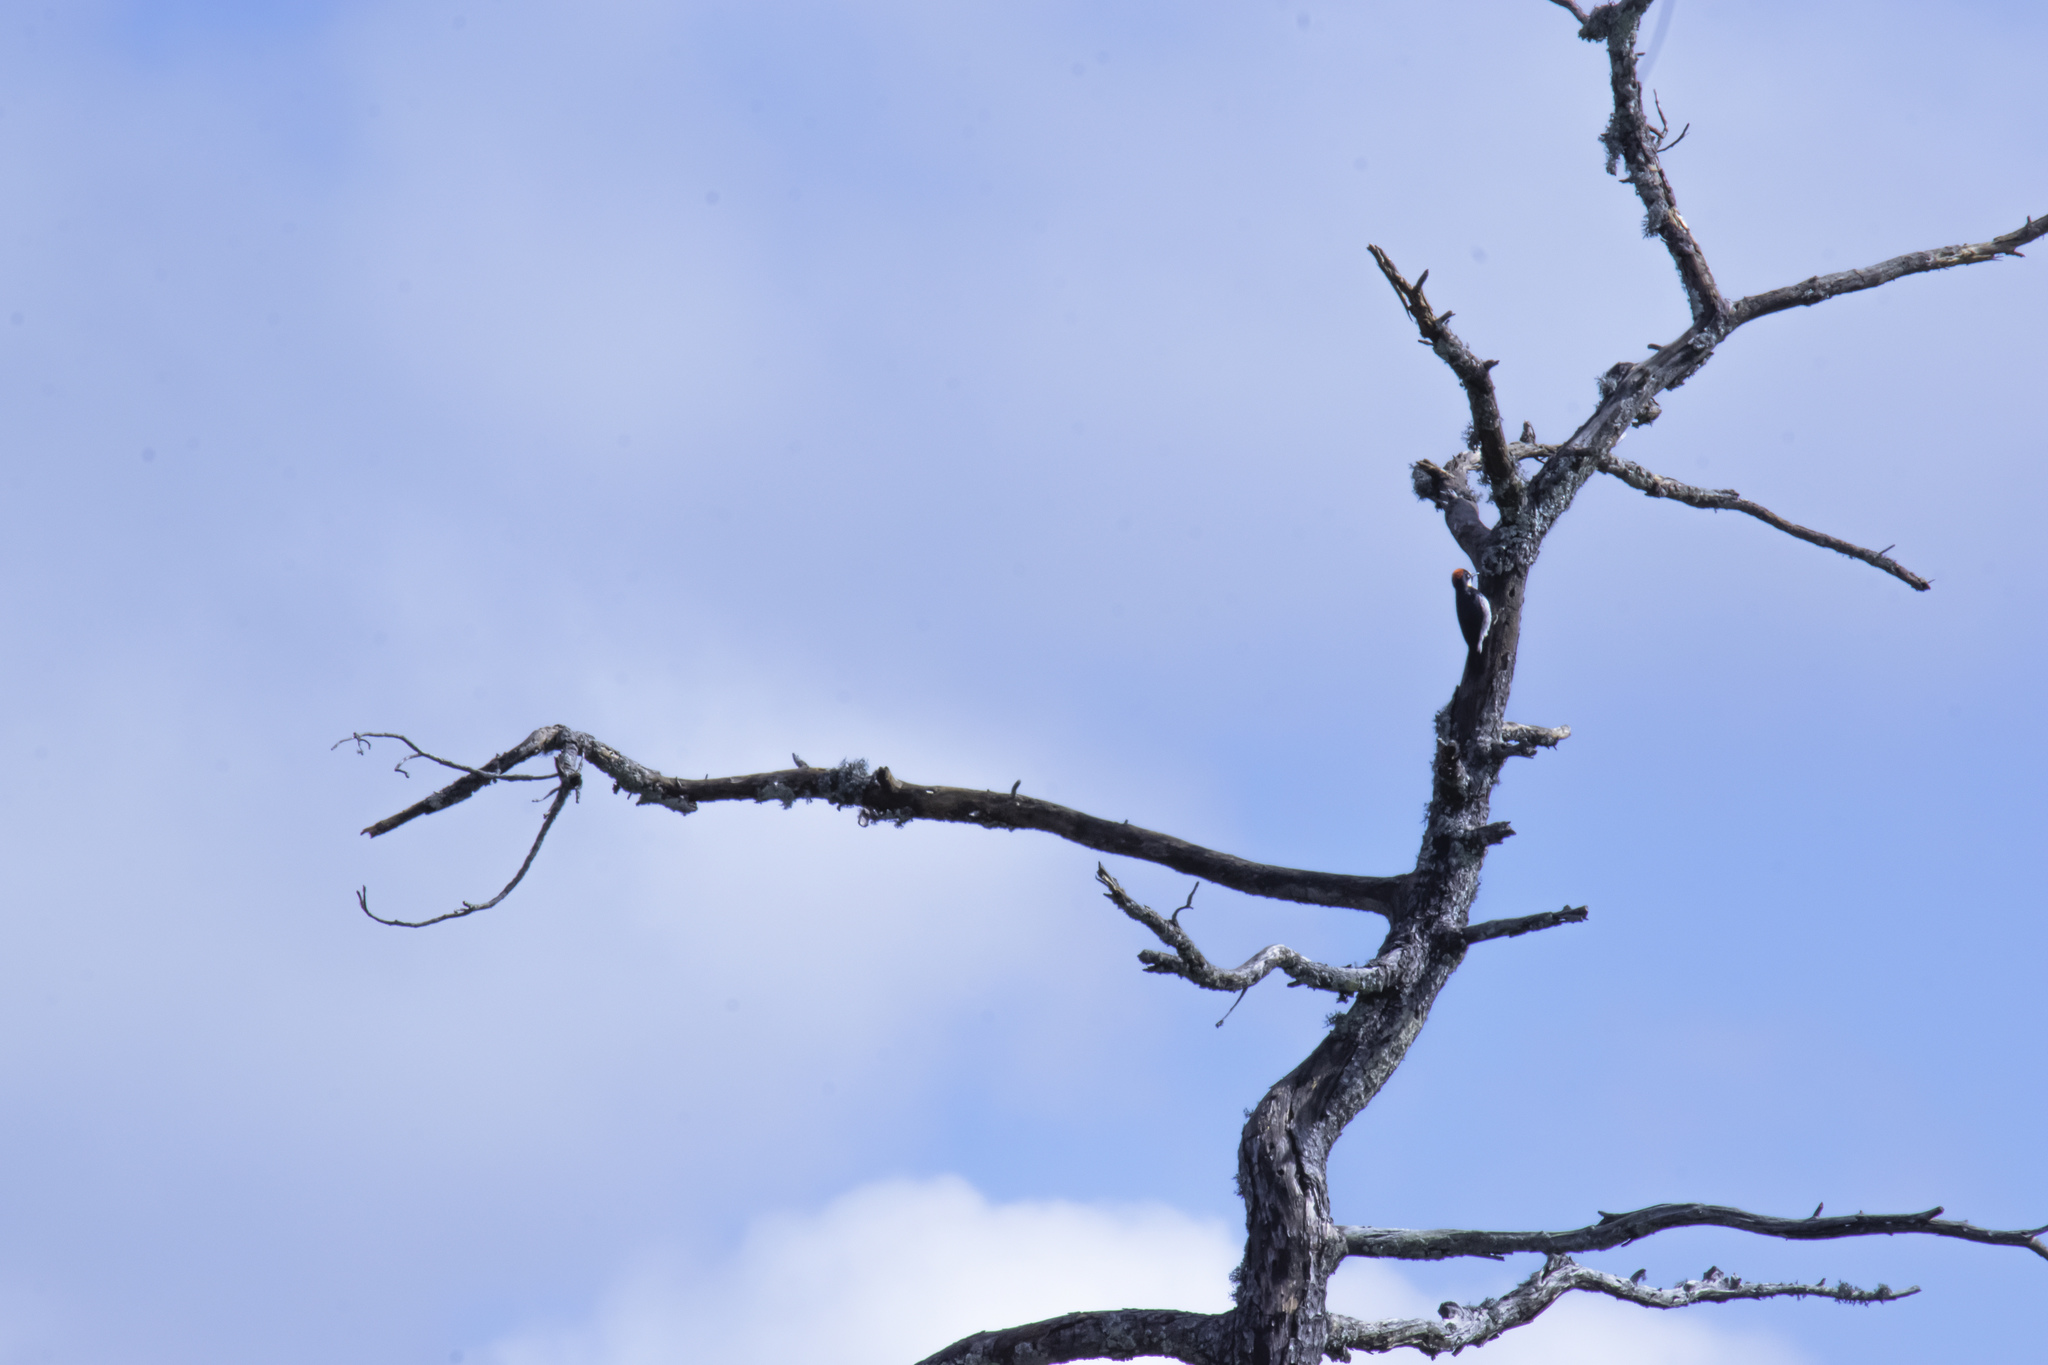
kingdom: Animalia
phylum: Chordata
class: Aves
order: Piciformes
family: Picidae
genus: Melanerpes
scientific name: Melanerpes formicivorus
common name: Acorn woodpecker
